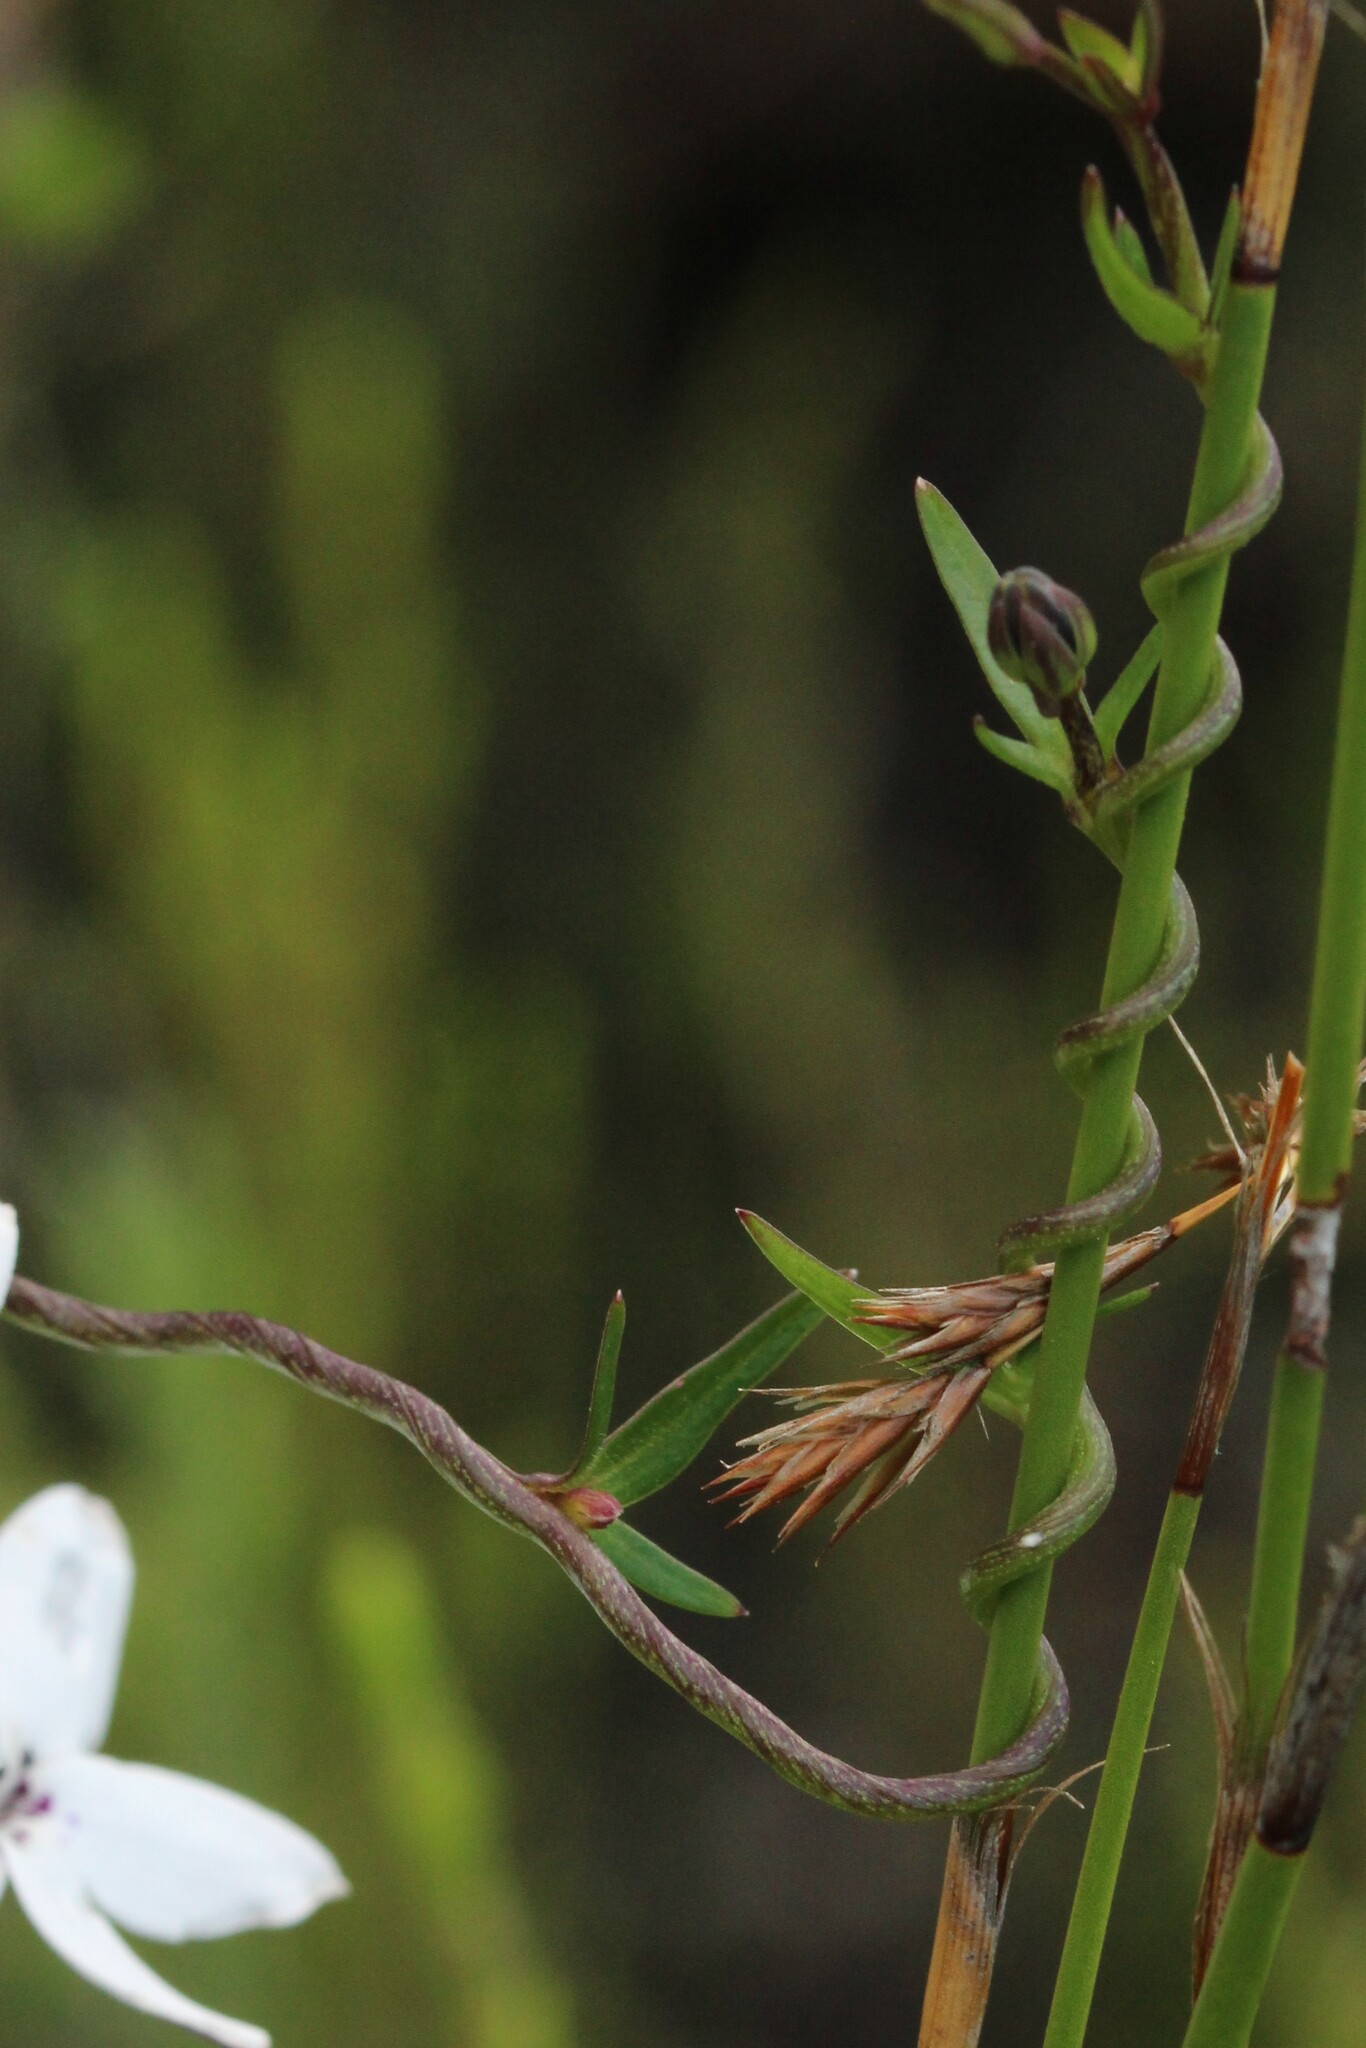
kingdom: Plantae
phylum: Tracheophyta
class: Magnoliopsida
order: Asterales
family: Campanulaceae
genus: Cyphia
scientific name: Cyphia volubilis
